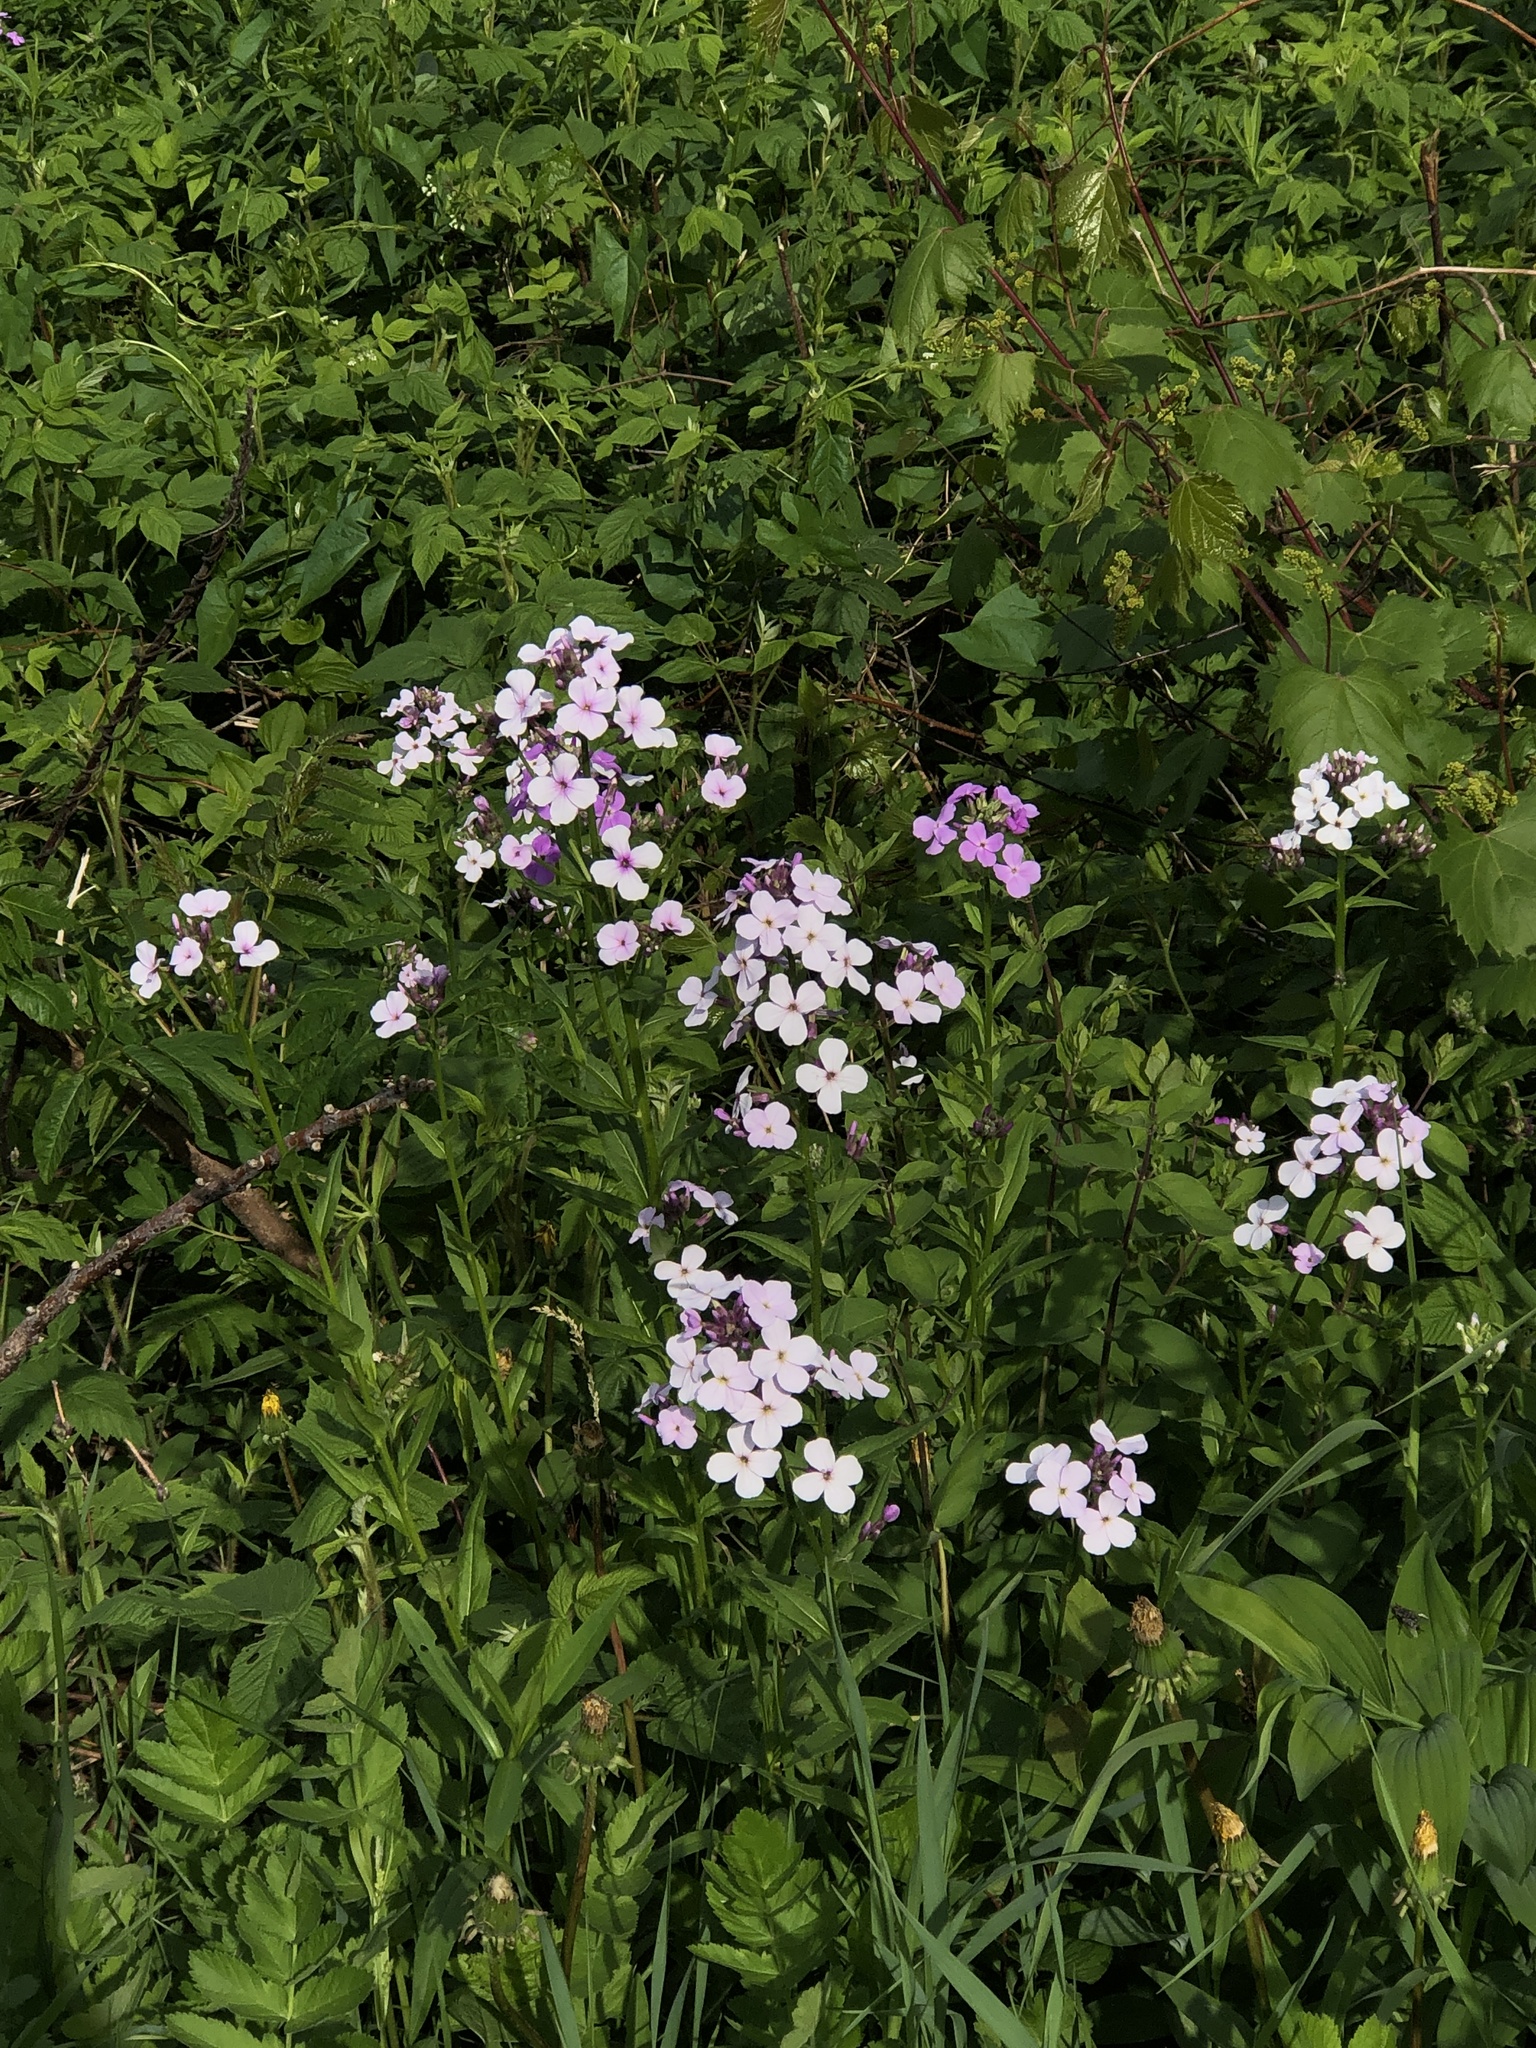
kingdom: Plantae
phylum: Tracheophyta
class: Magnoliopsida
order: Brassicales
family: Brassicaceae
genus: Hesperis
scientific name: Hesperis matronalis
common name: Dame's-violet
